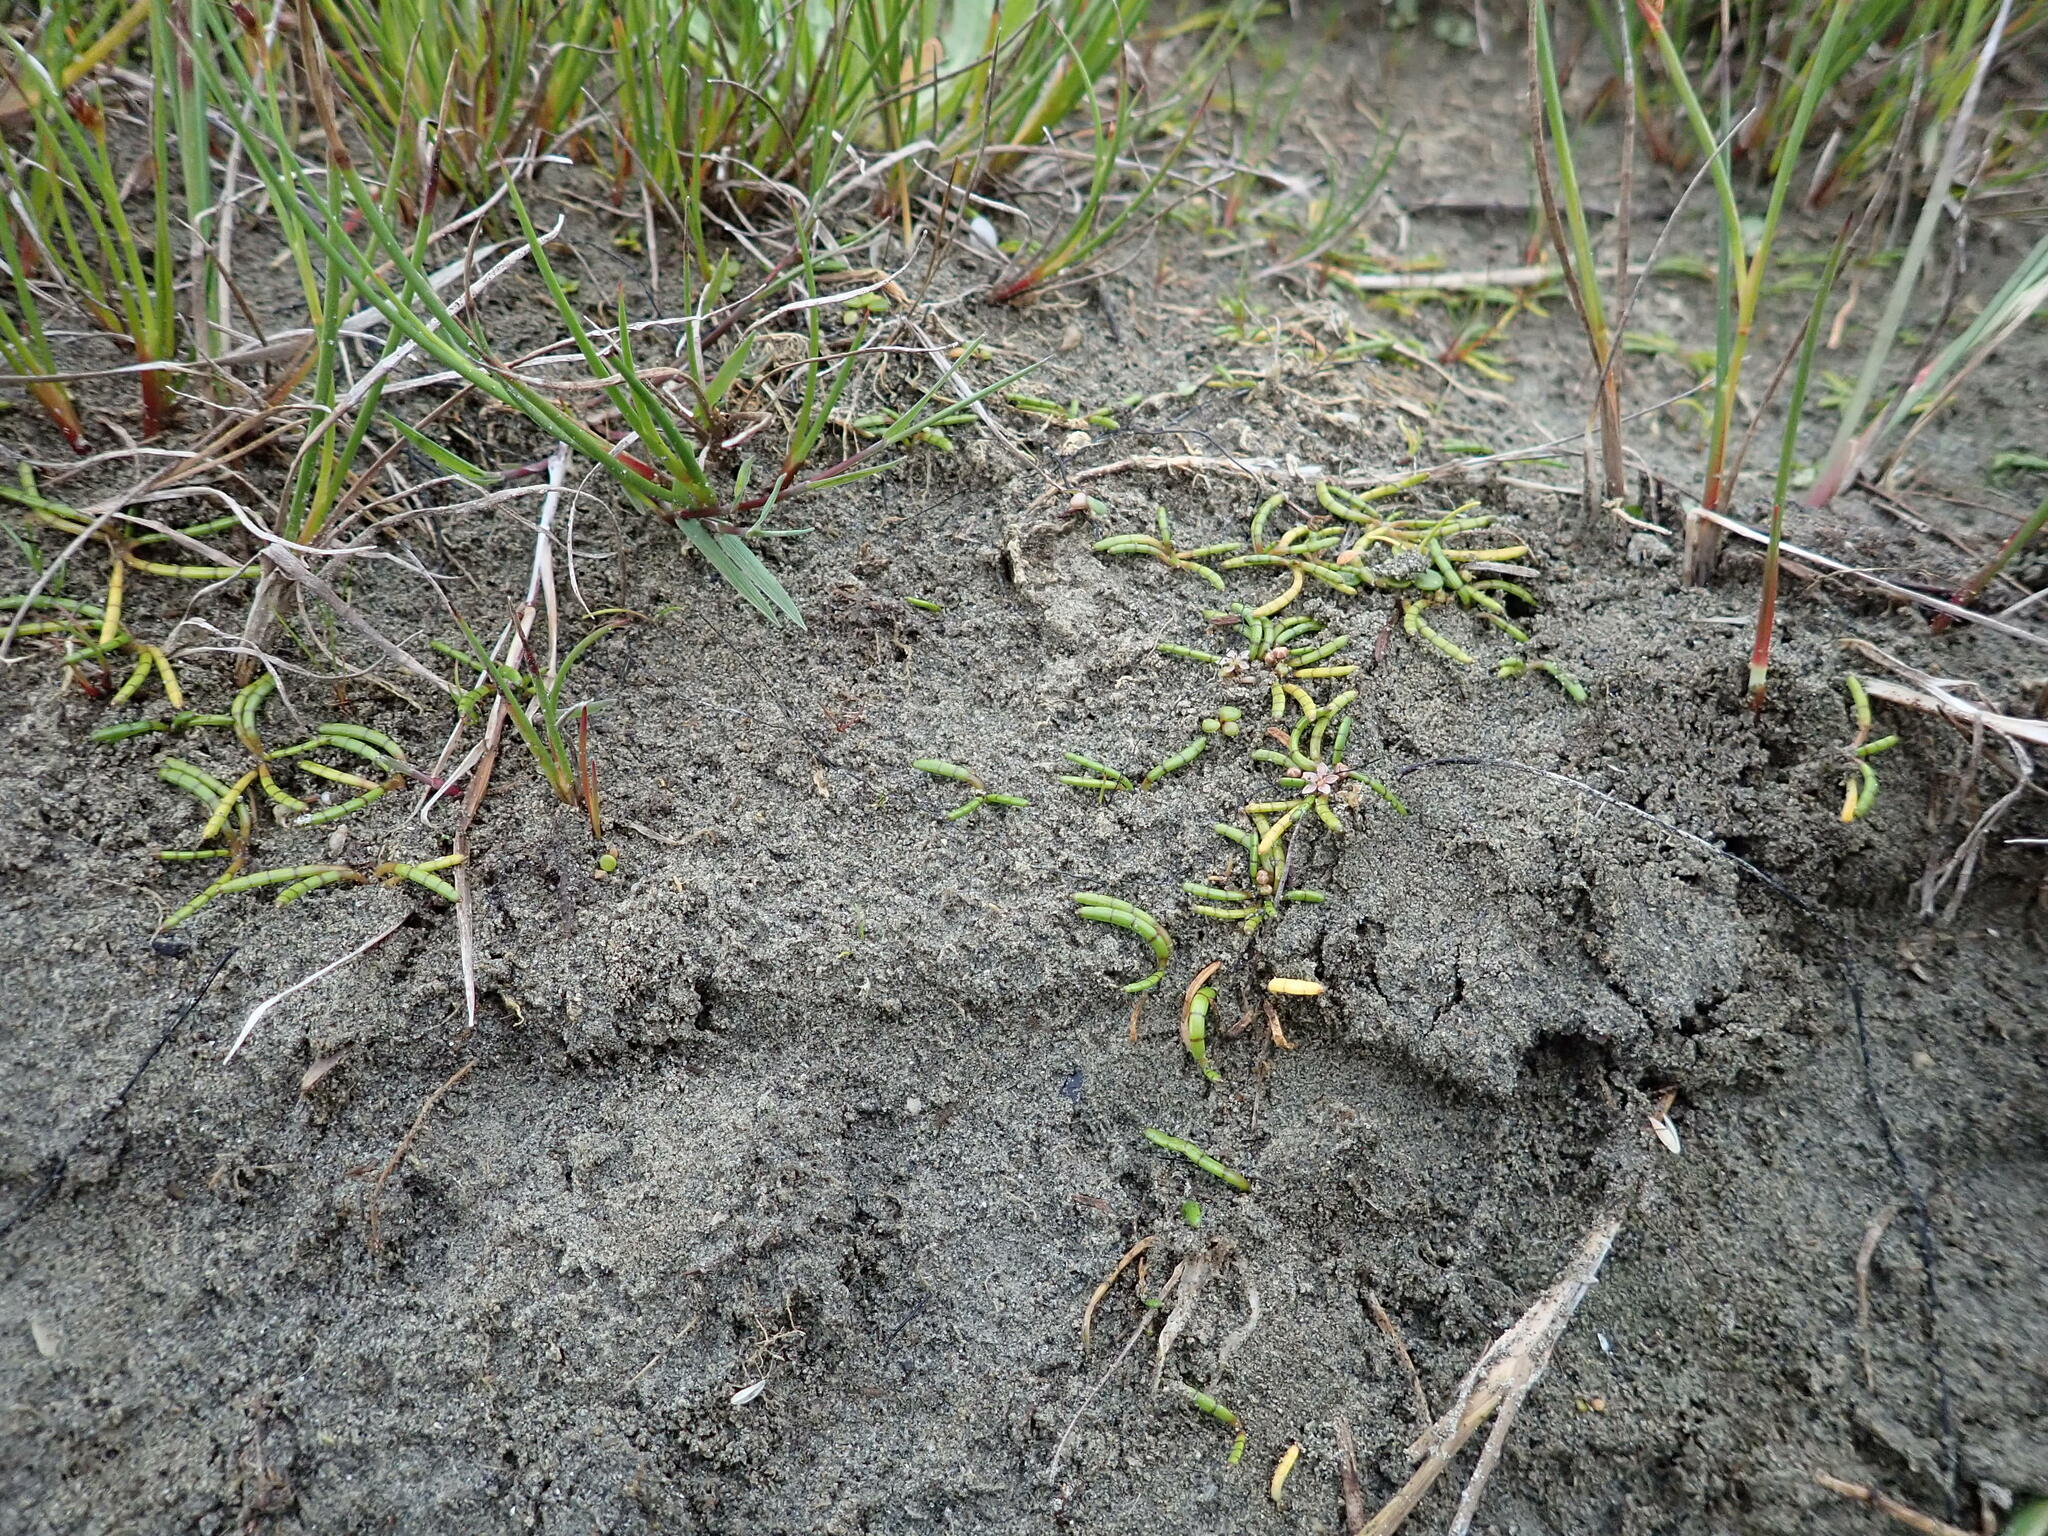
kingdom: Plantae
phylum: Tracheophyta
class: Magnoliopsida
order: Apiales
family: Apiaceae
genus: Lilaeopsis
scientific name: Lilaeopsis novae-zelandiae
